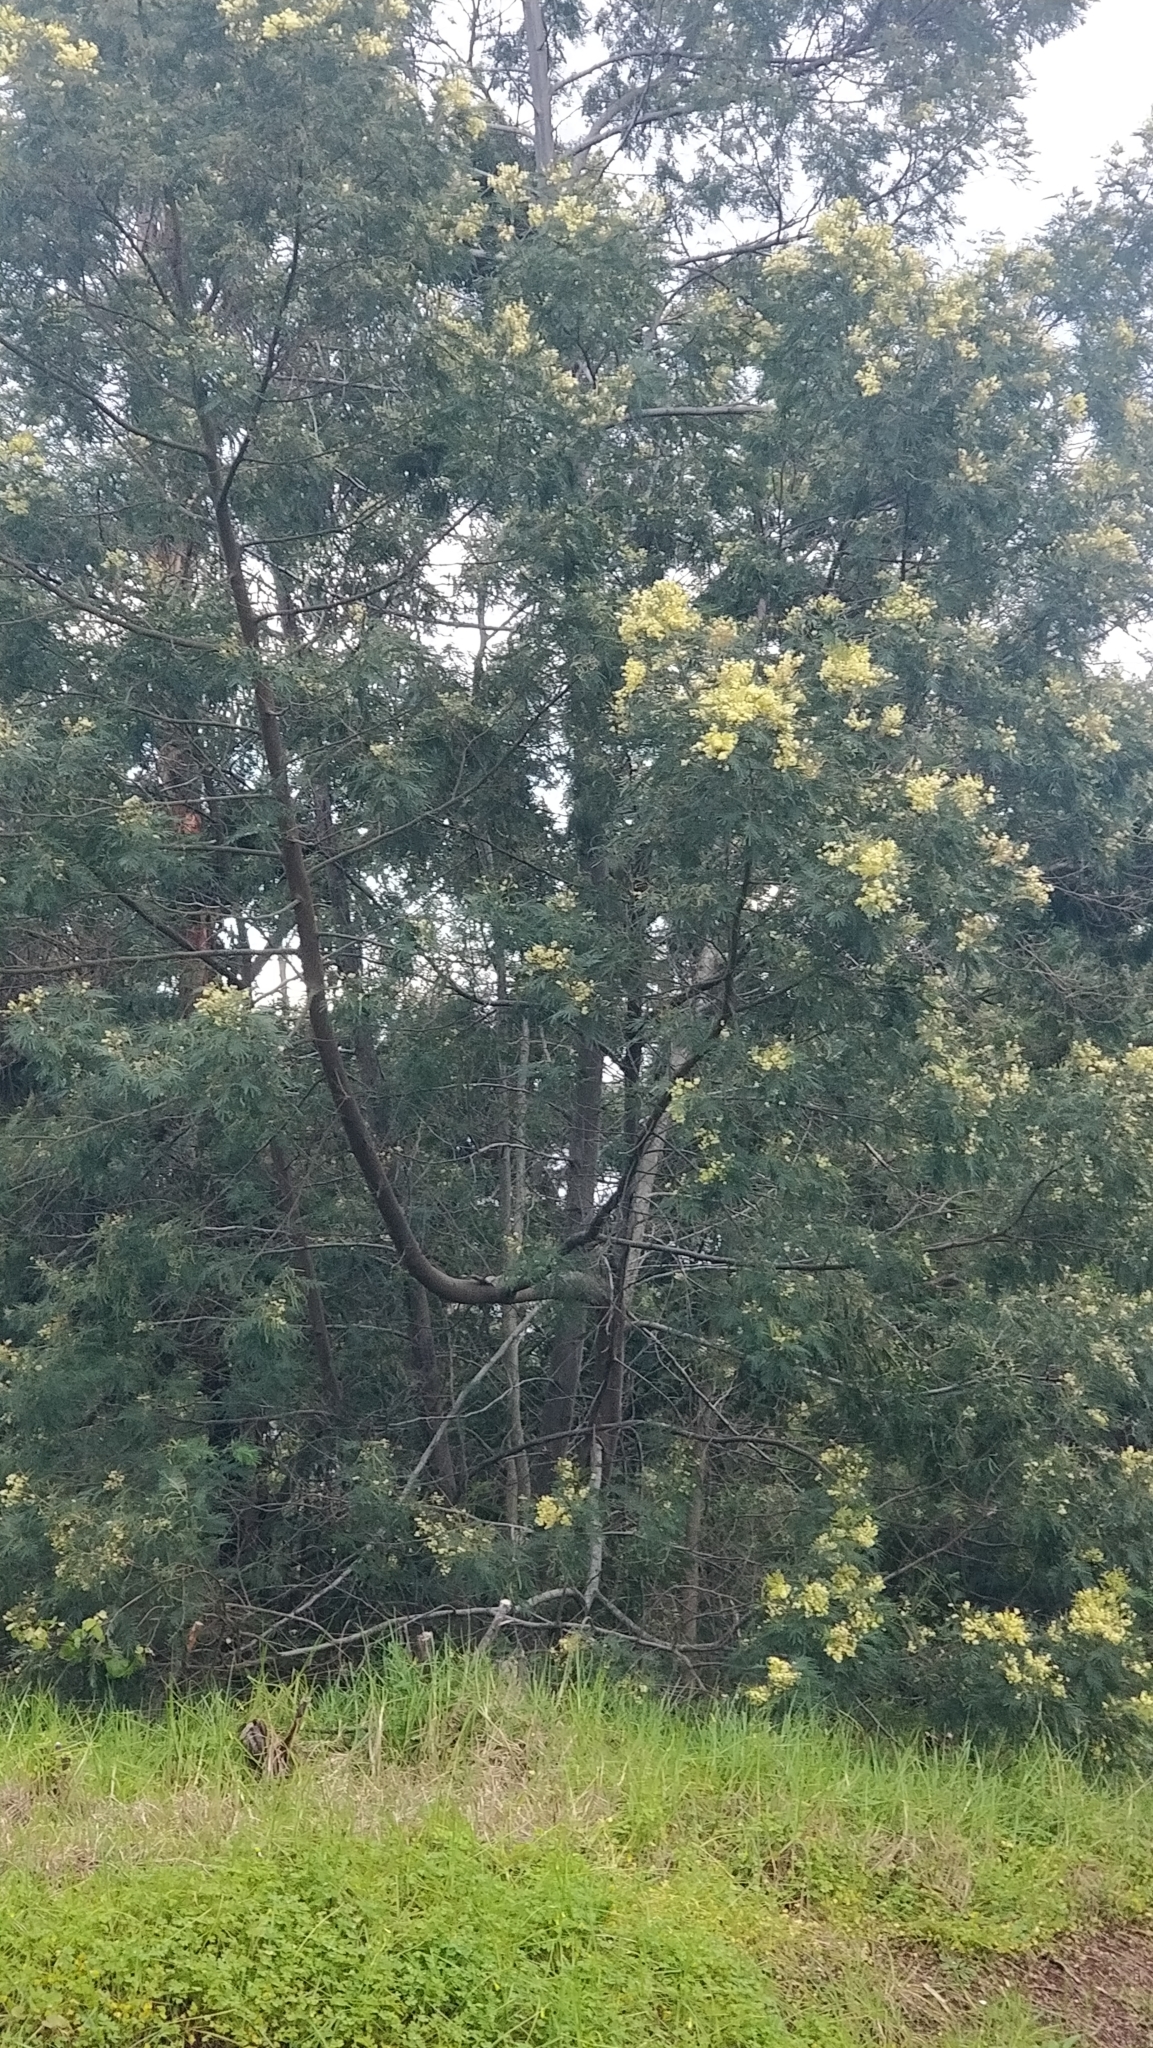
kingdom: Plantae
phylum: Tracheophyta
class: Magnoliopsida
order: Fabales
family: Fabaceae
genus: Acacia
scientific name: Acacia mearnsii
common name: Black wattle
